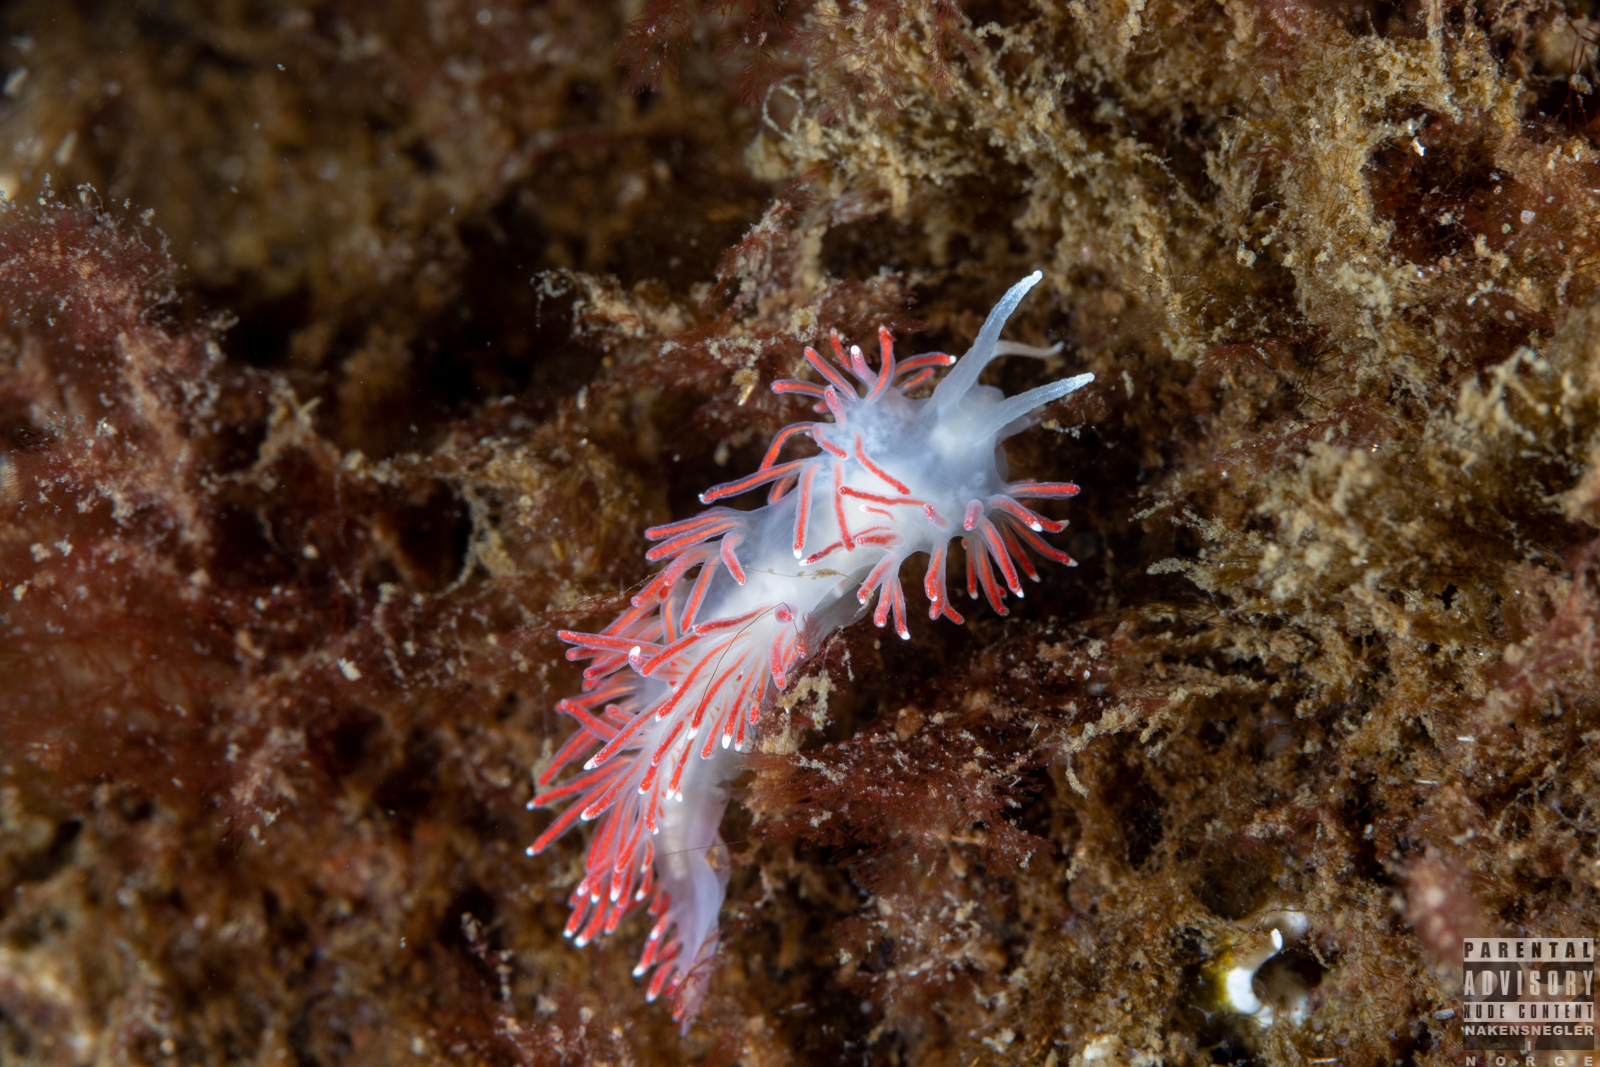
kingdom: Animalia
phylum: Mollusca
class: Gastropoda
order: Nudibranchia
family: Flabellinidae
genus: Carronella
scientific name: Carronella pellucida
